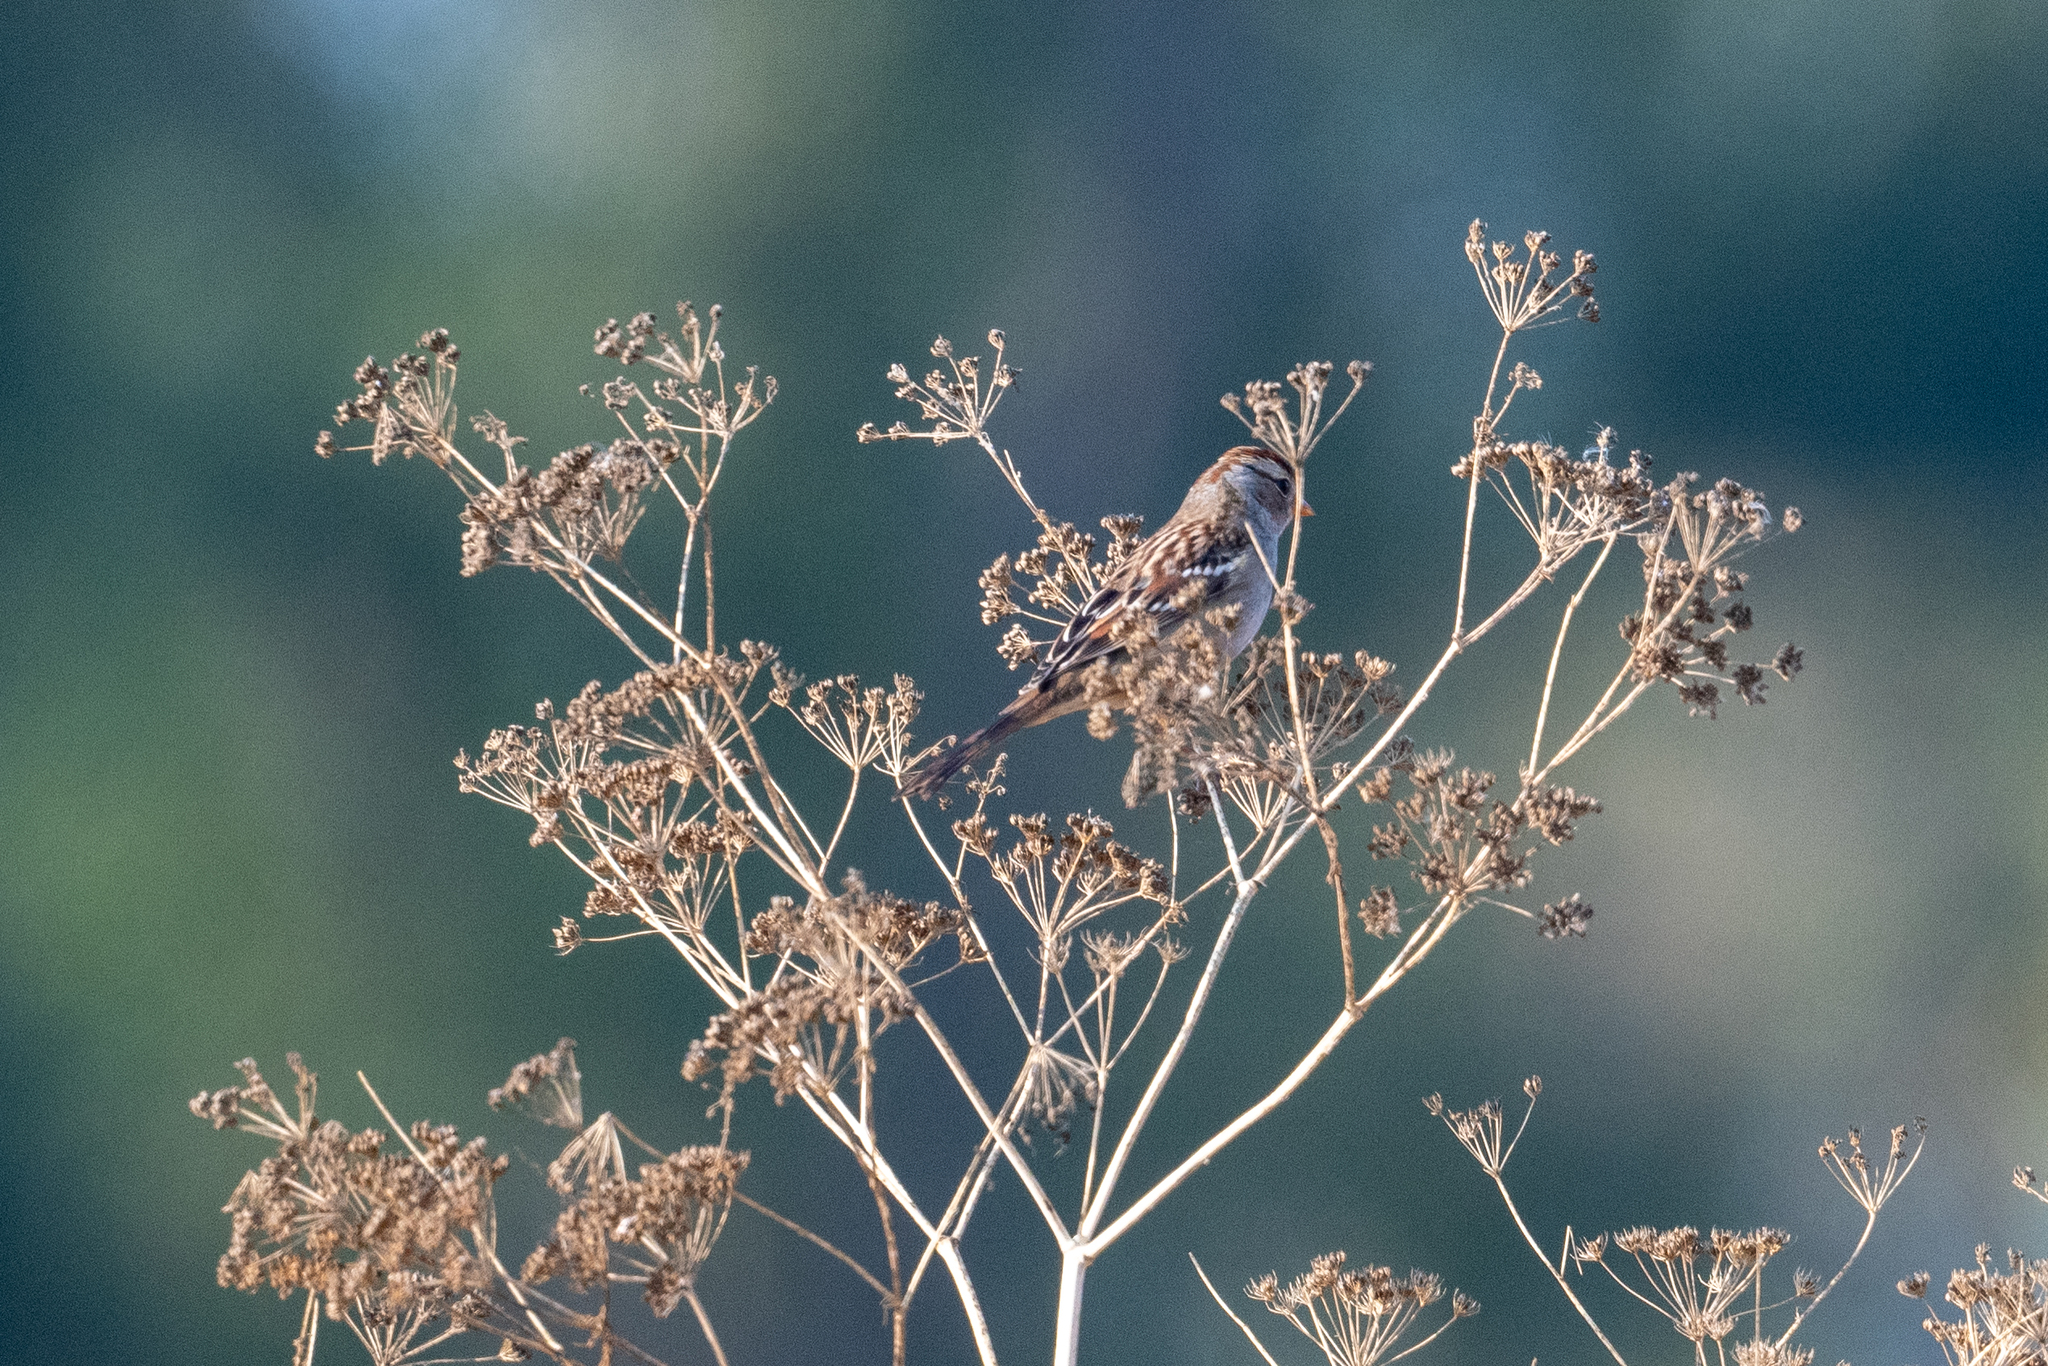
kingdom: Animalia
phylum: Chordata
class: Aves
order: Passeriformes
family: Passerellidae
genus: Zonotrichia
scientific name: Zonotrichia leucophrys
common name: White-crowned sparrow
